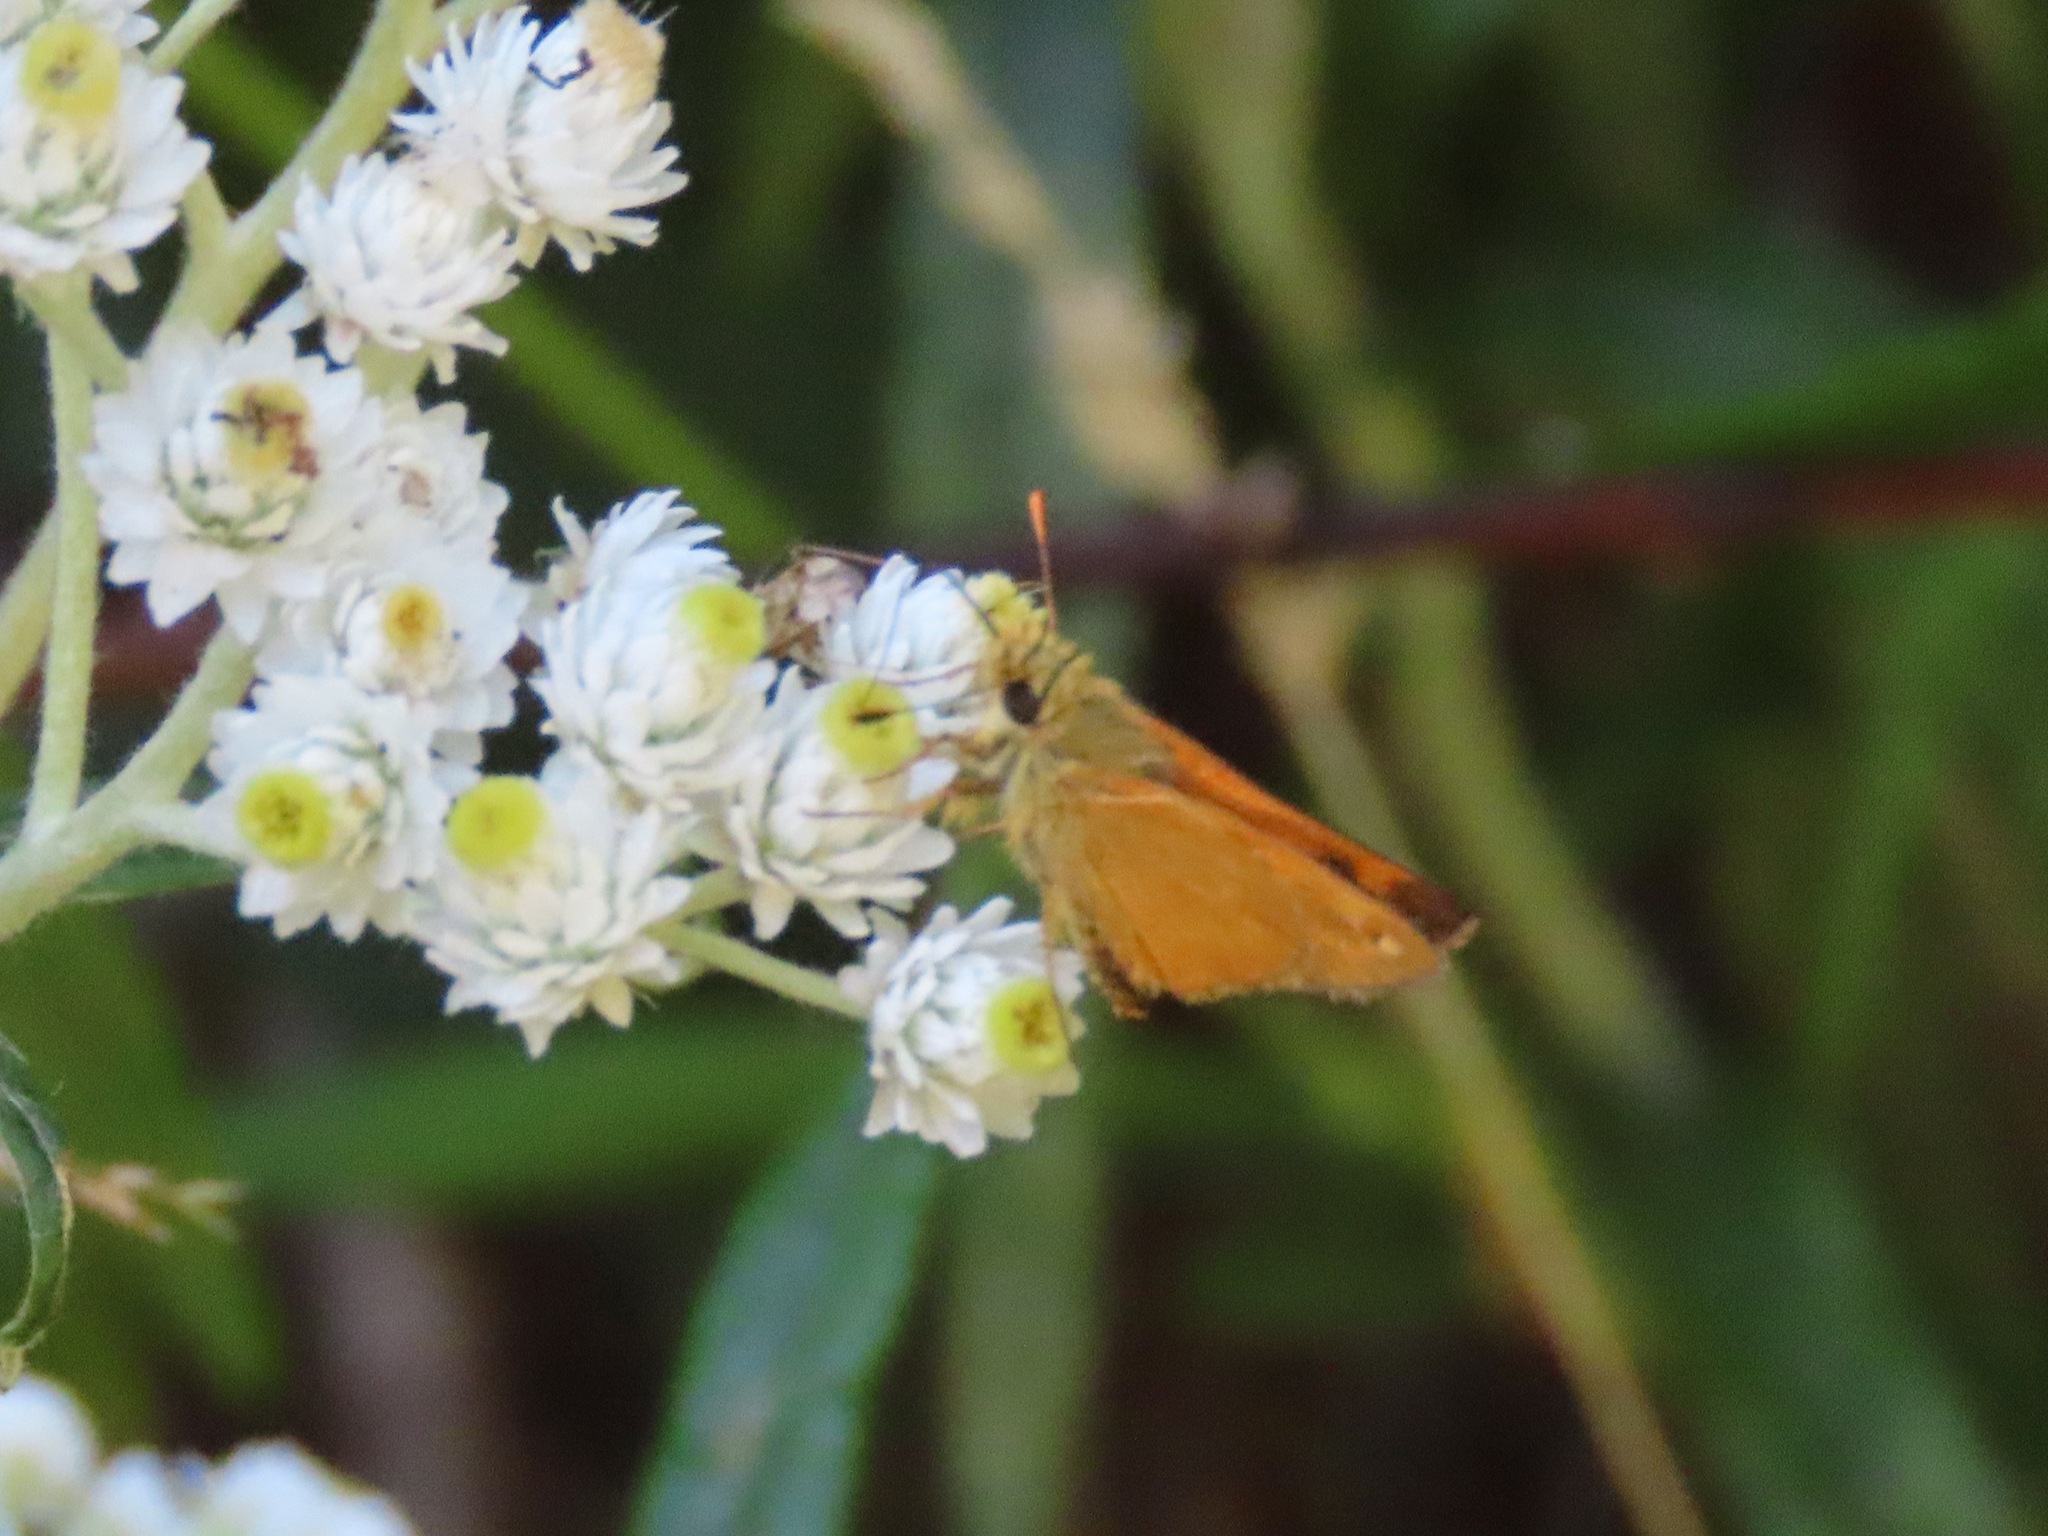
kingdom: Animalia
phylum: Arthropoda
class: Insecta
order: Lepidoptera
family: Hesperiidae
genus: Ochlodes
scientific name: Ochlodes sylvanoides
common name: Woodland skipper
